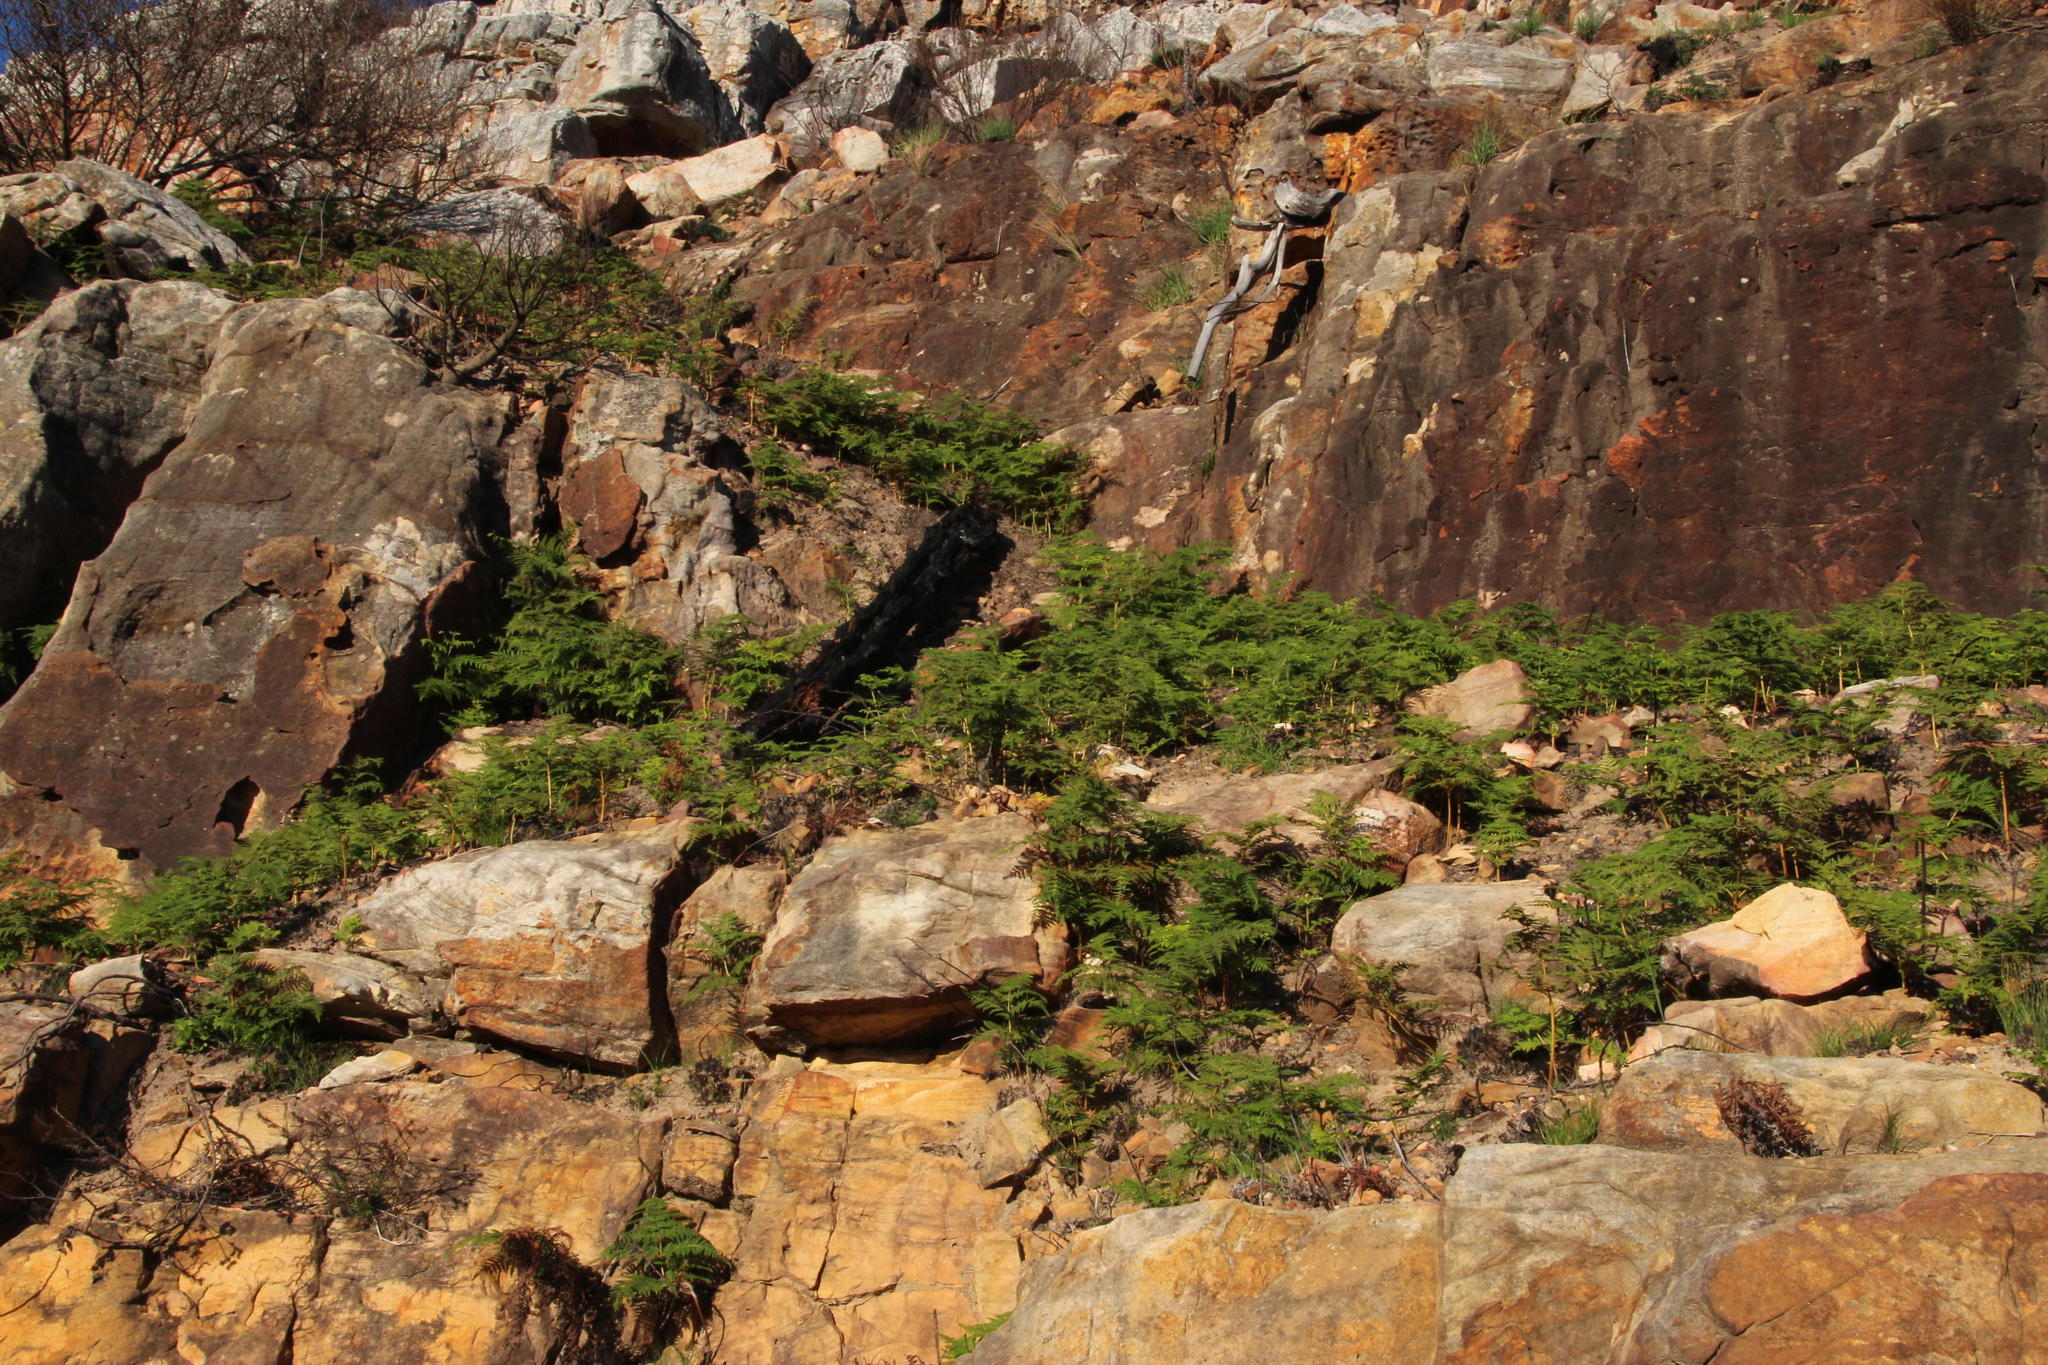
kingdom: Plantae
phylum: Tracheophyta
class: Polypodiopsida
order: Polypodiales
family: Dennstaedtiaceae
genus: Pteridium
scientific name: Pteridium aquilinum
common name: Bracken
